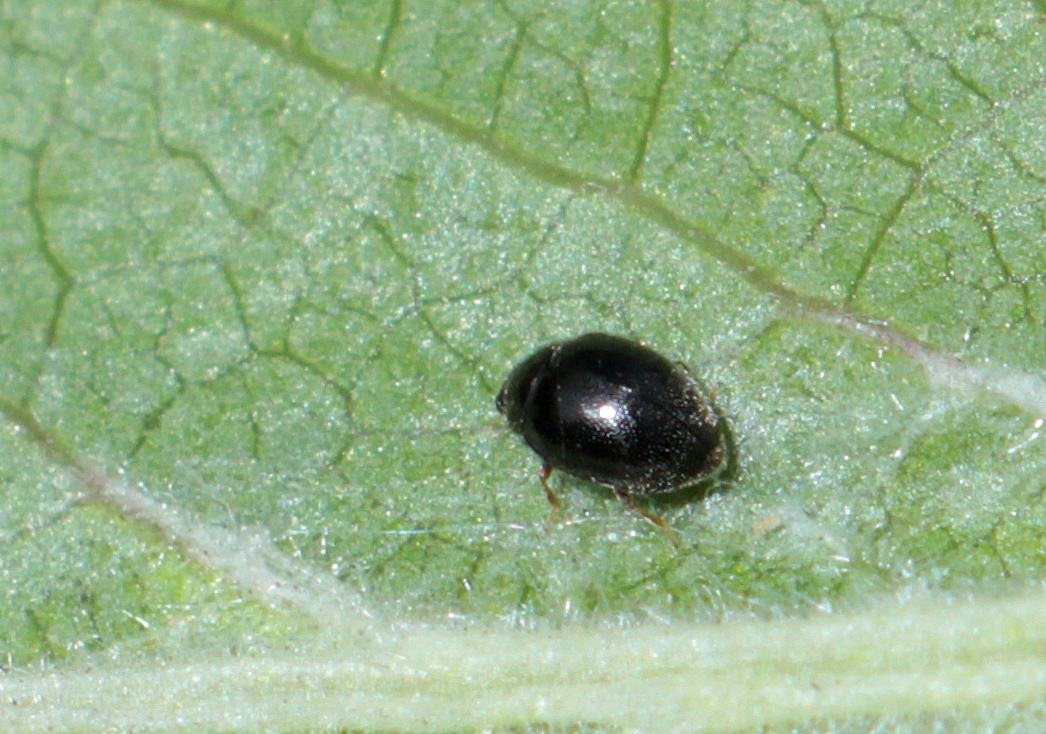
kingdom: Animalia
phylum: Arthropoda
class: Insecta
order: Coleoptera
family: Coccinellidae
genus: Stethorus
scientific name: Stethorus pusillus
